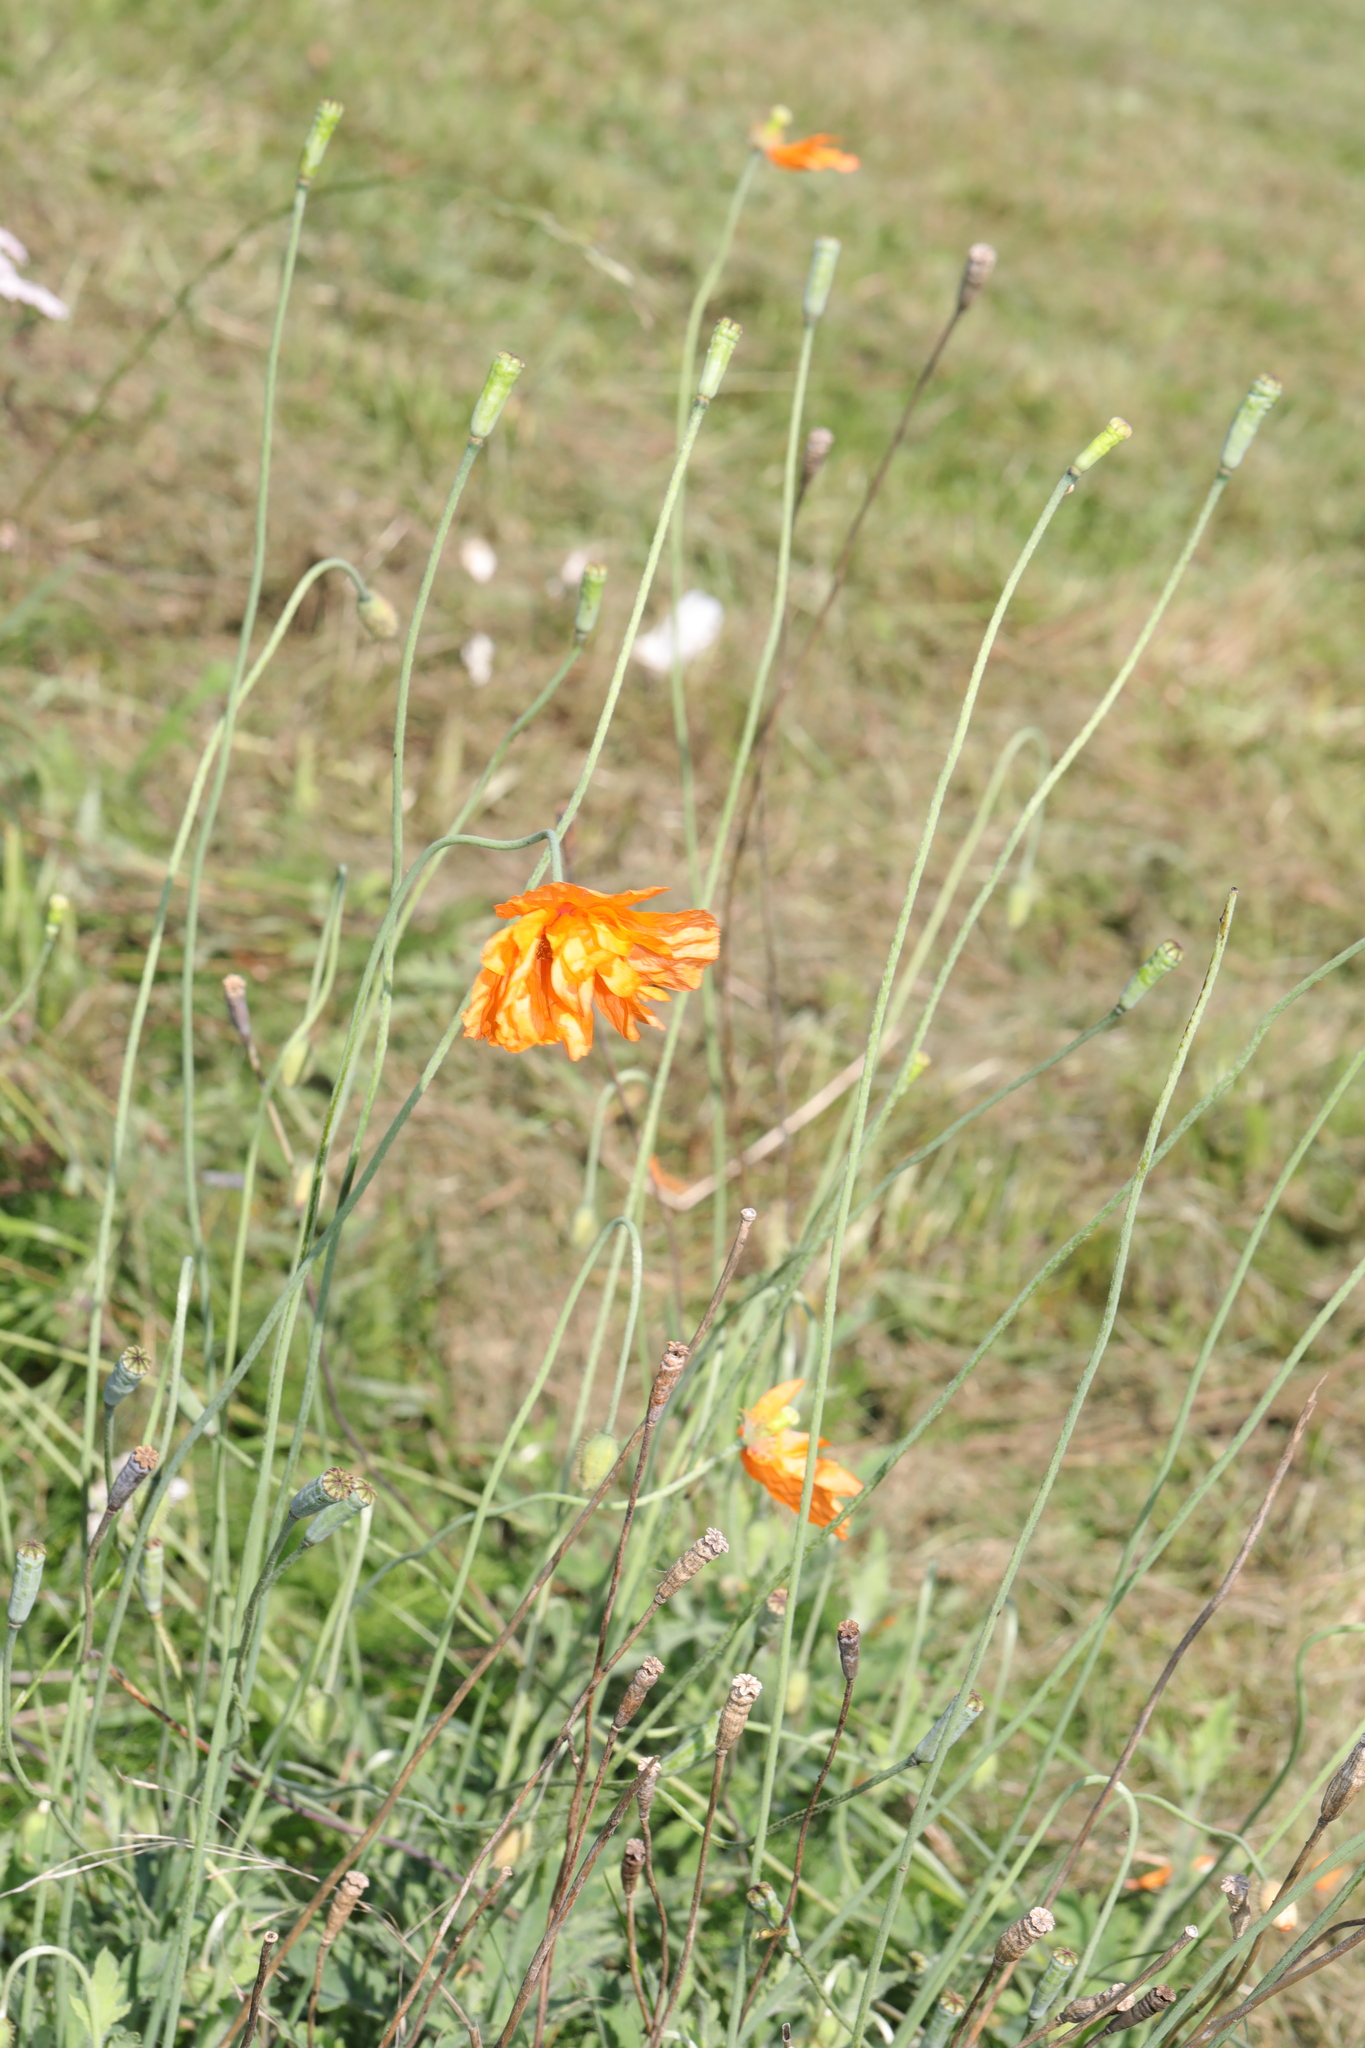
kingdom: Plantae
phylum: Tracheophyta
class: Magnoliopsida
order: Ranunculales
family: Papaveraceae
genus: Papaver
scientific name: Papaver atlanticum
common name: Atlas poppy
